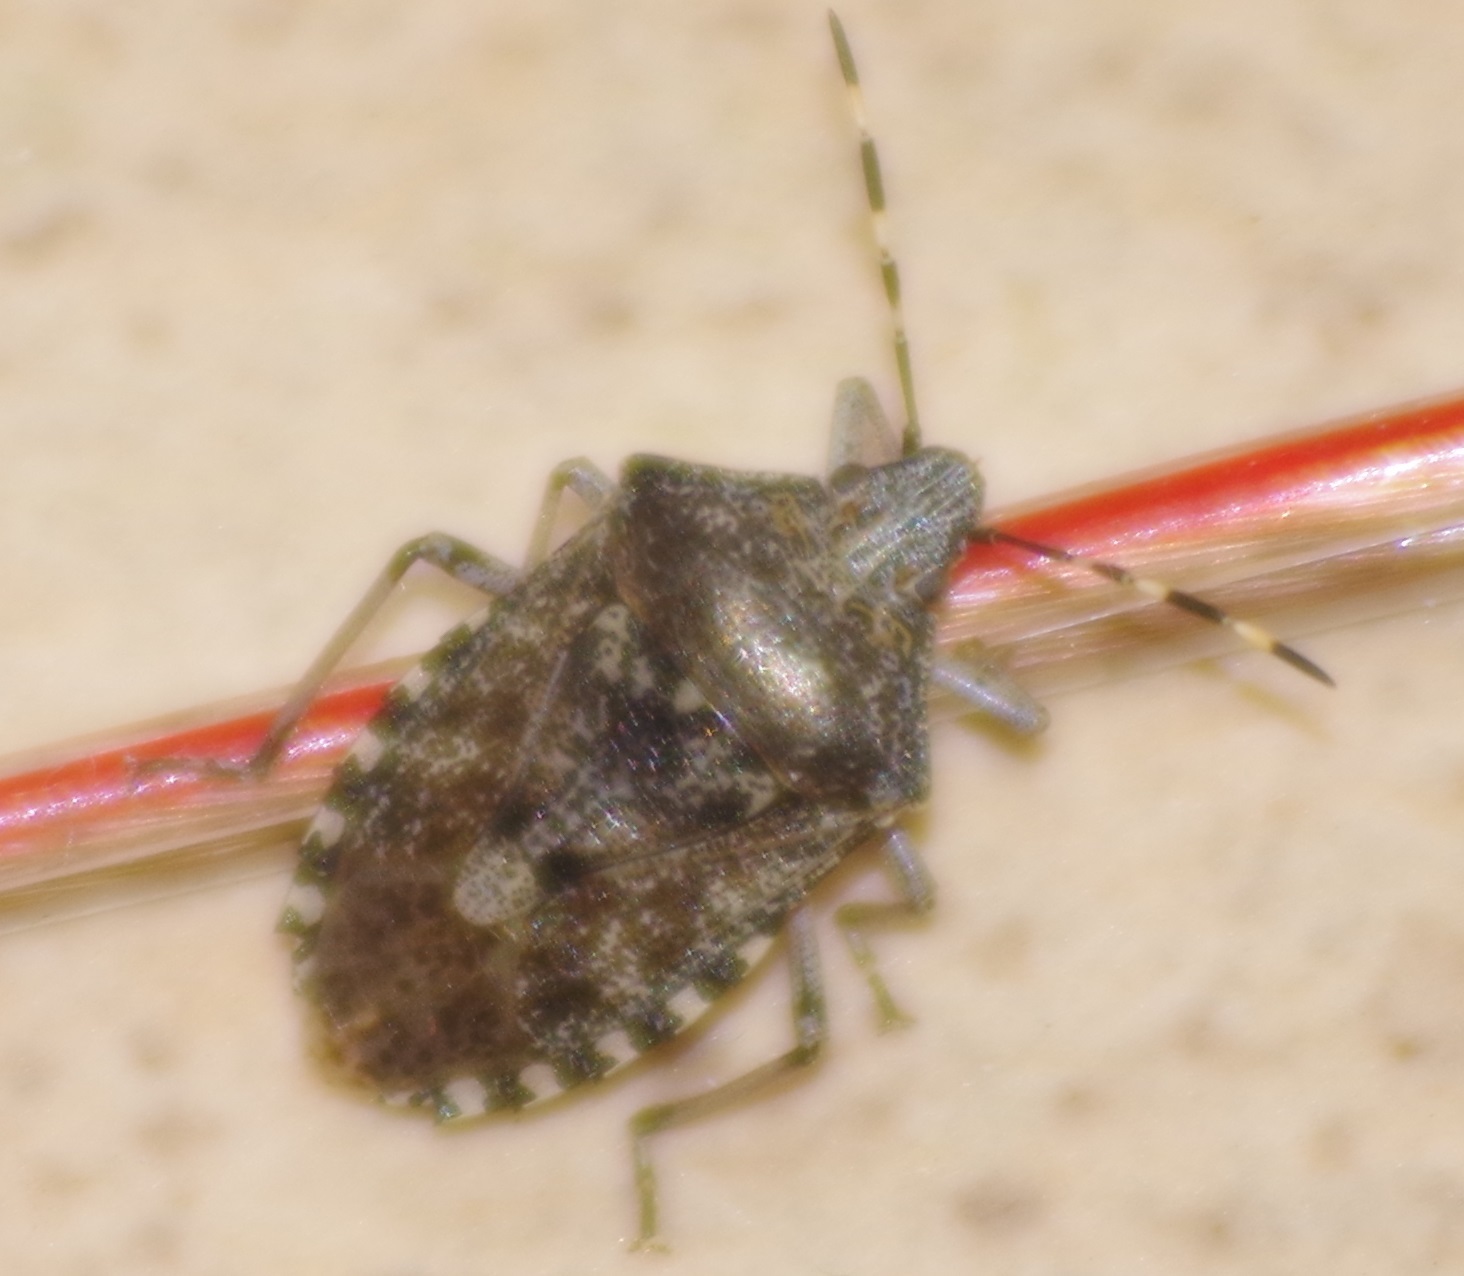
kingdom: Animalia
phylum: Arthropoda
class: Insecta
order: Hemiptera
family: Pentatomidae
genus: Rhaphigaster
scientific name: Rhaphigaster nebulosa
